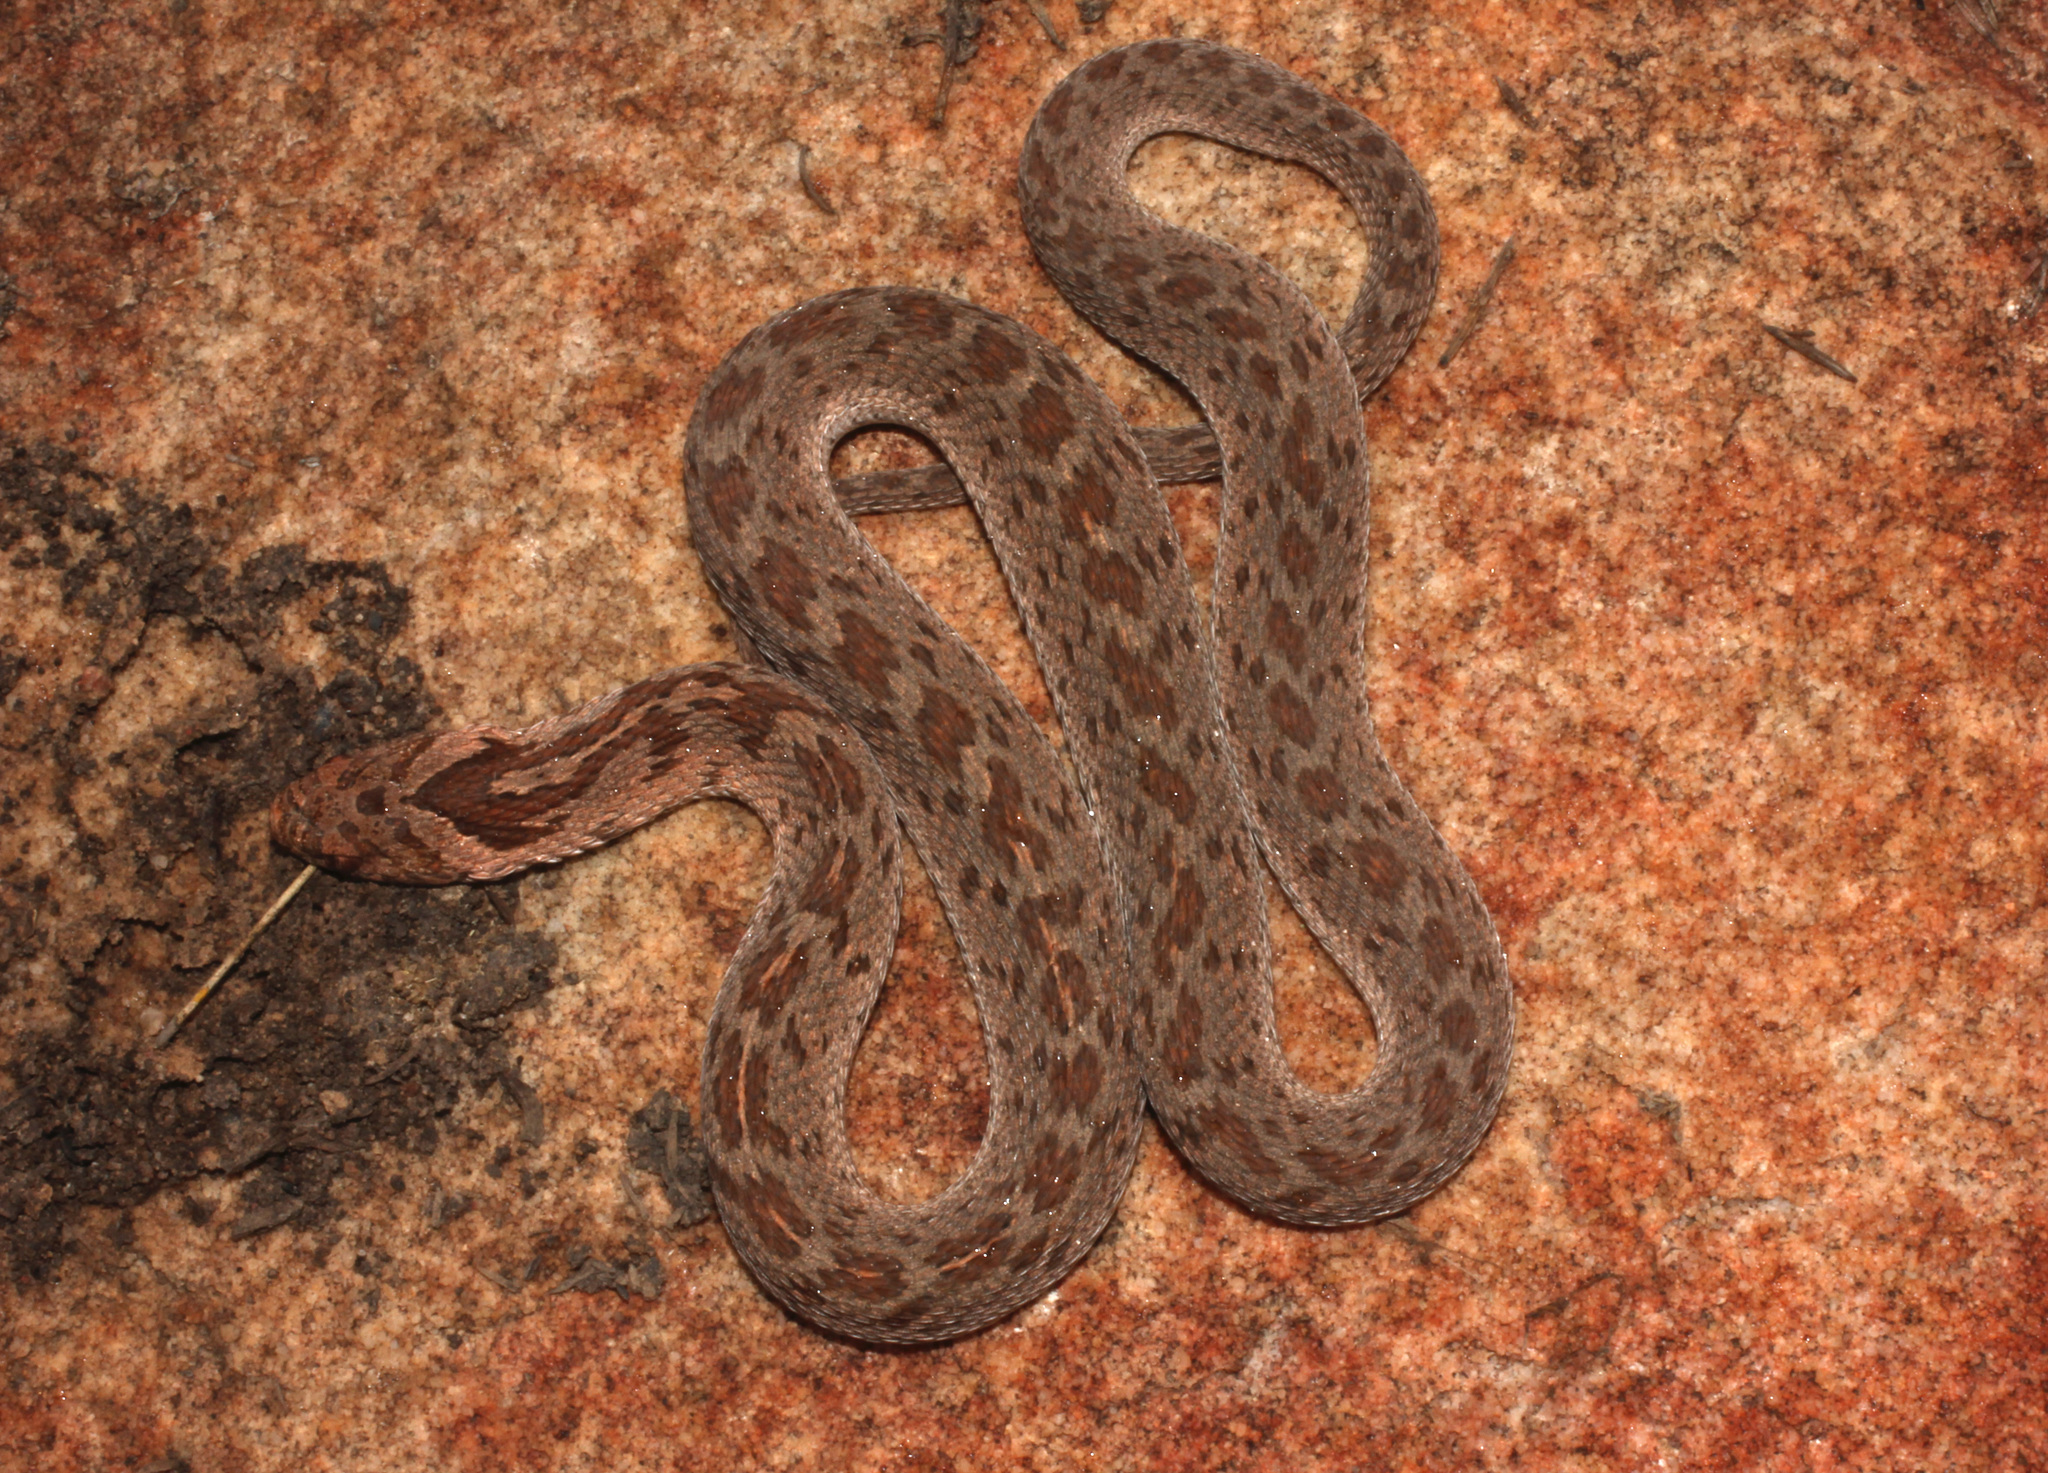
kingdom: Animalia
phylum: Chordata
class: Squamata
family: Colubridae
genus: Dasypeltis
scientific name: Dasypeltis scabra
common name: Common egg eater
